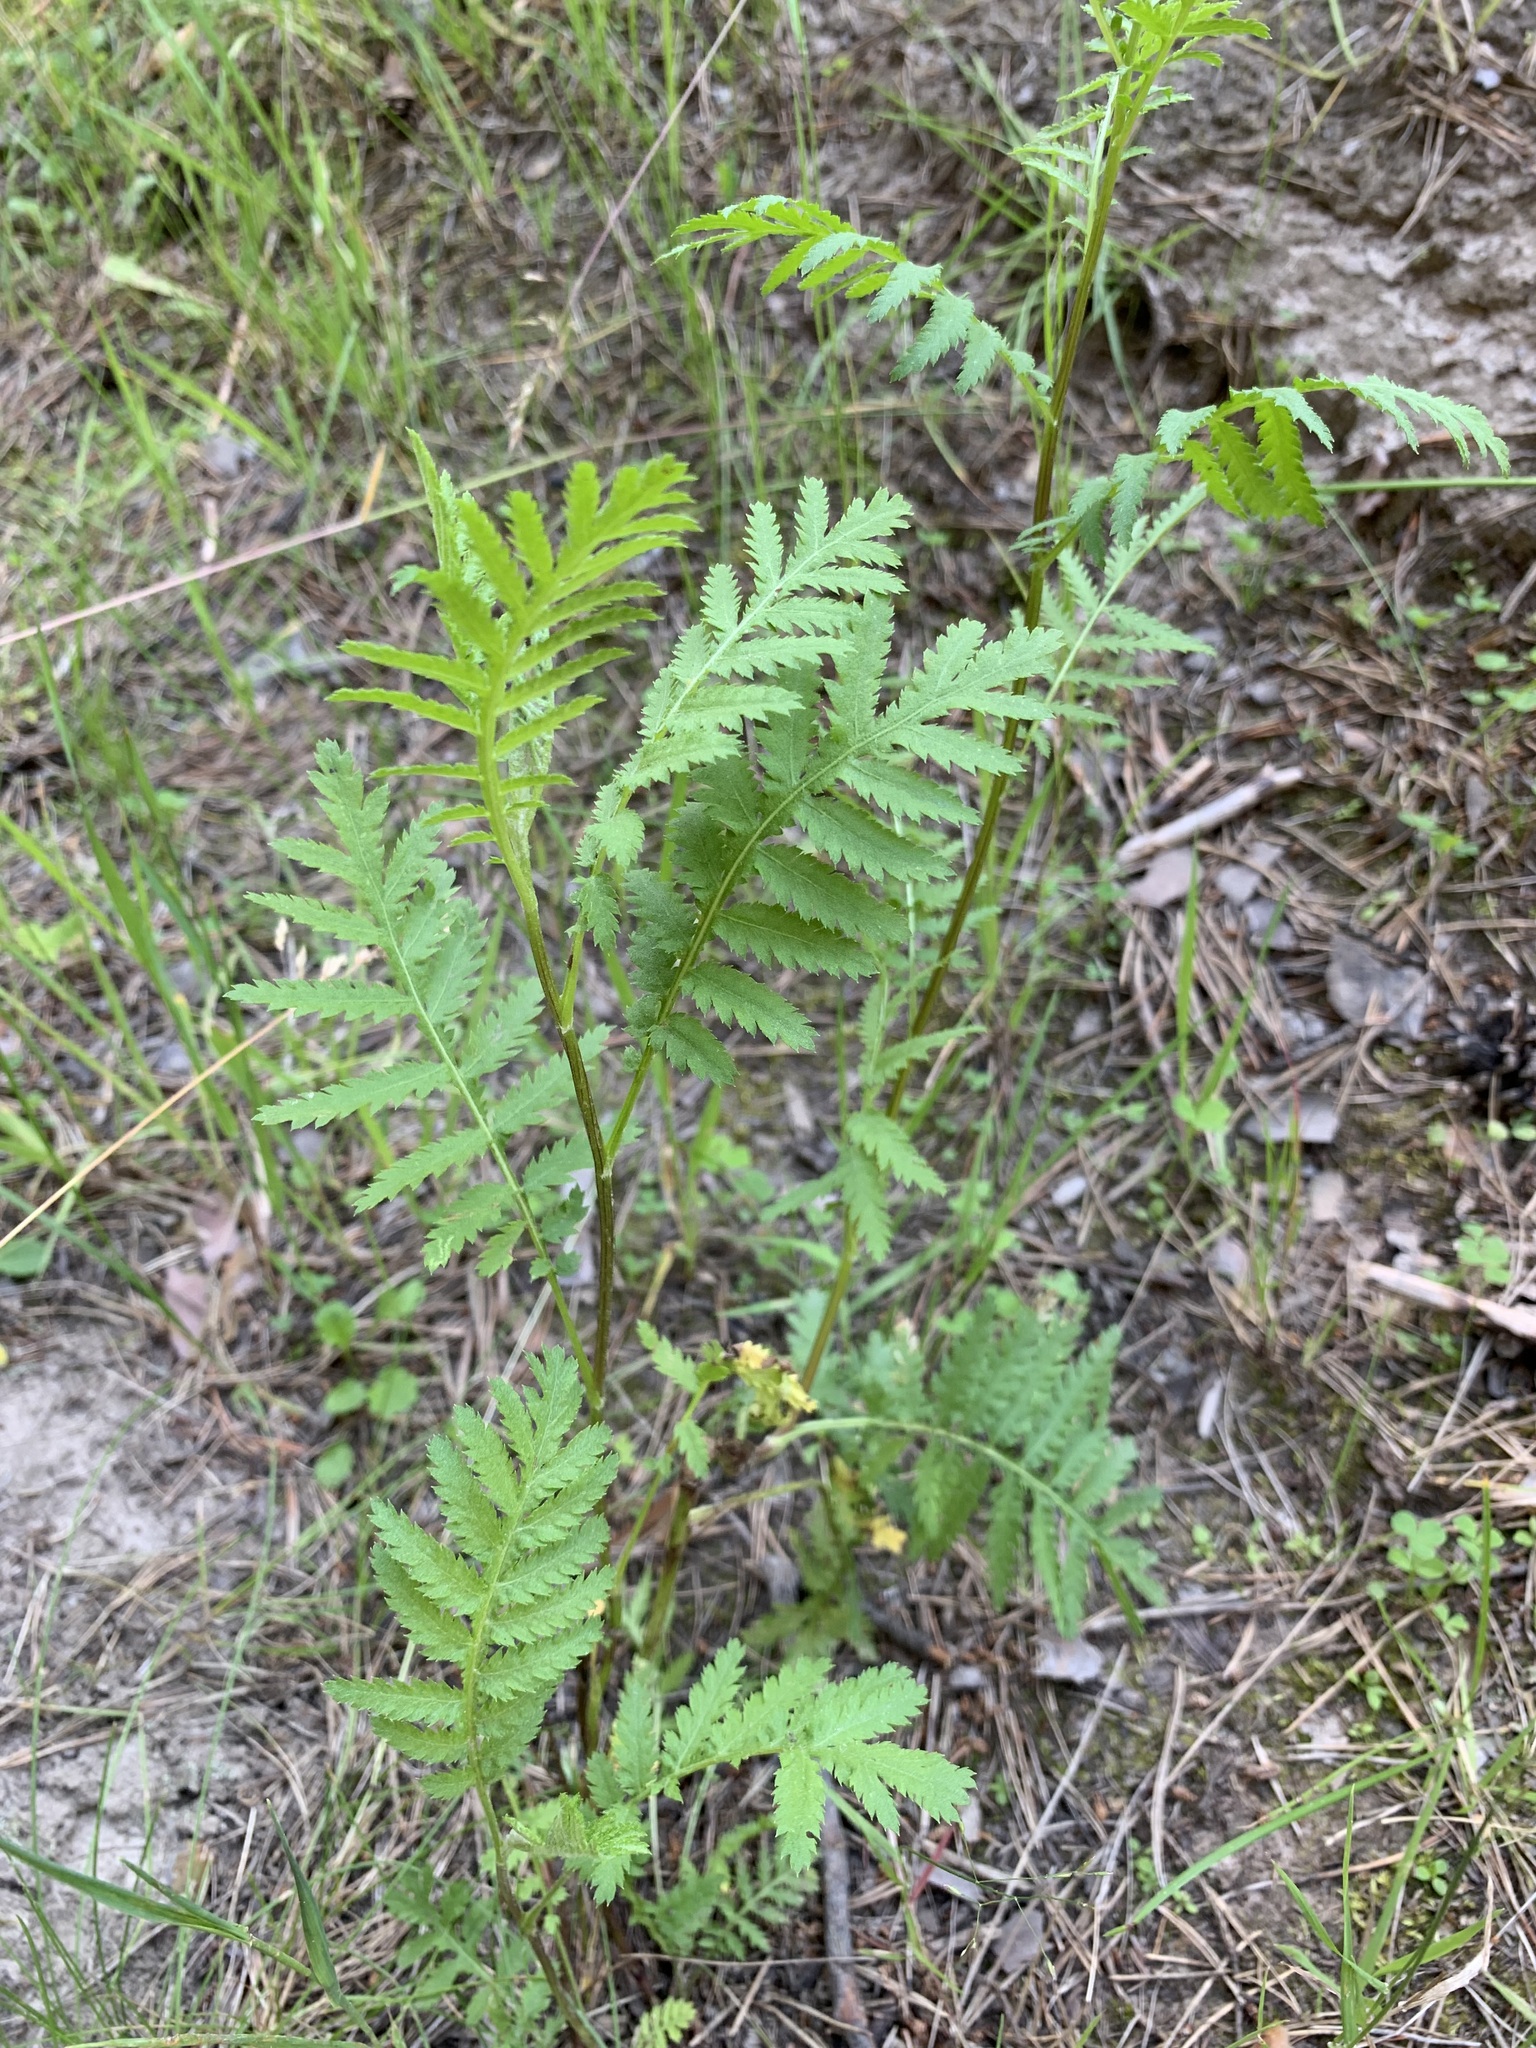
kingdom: Plantae
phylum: Tracheophyta
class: Magnoliopsida
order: Asterales
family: Asteraceae
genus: Tanacetum
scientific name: Tanacetum vulgare
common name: Common tansy
